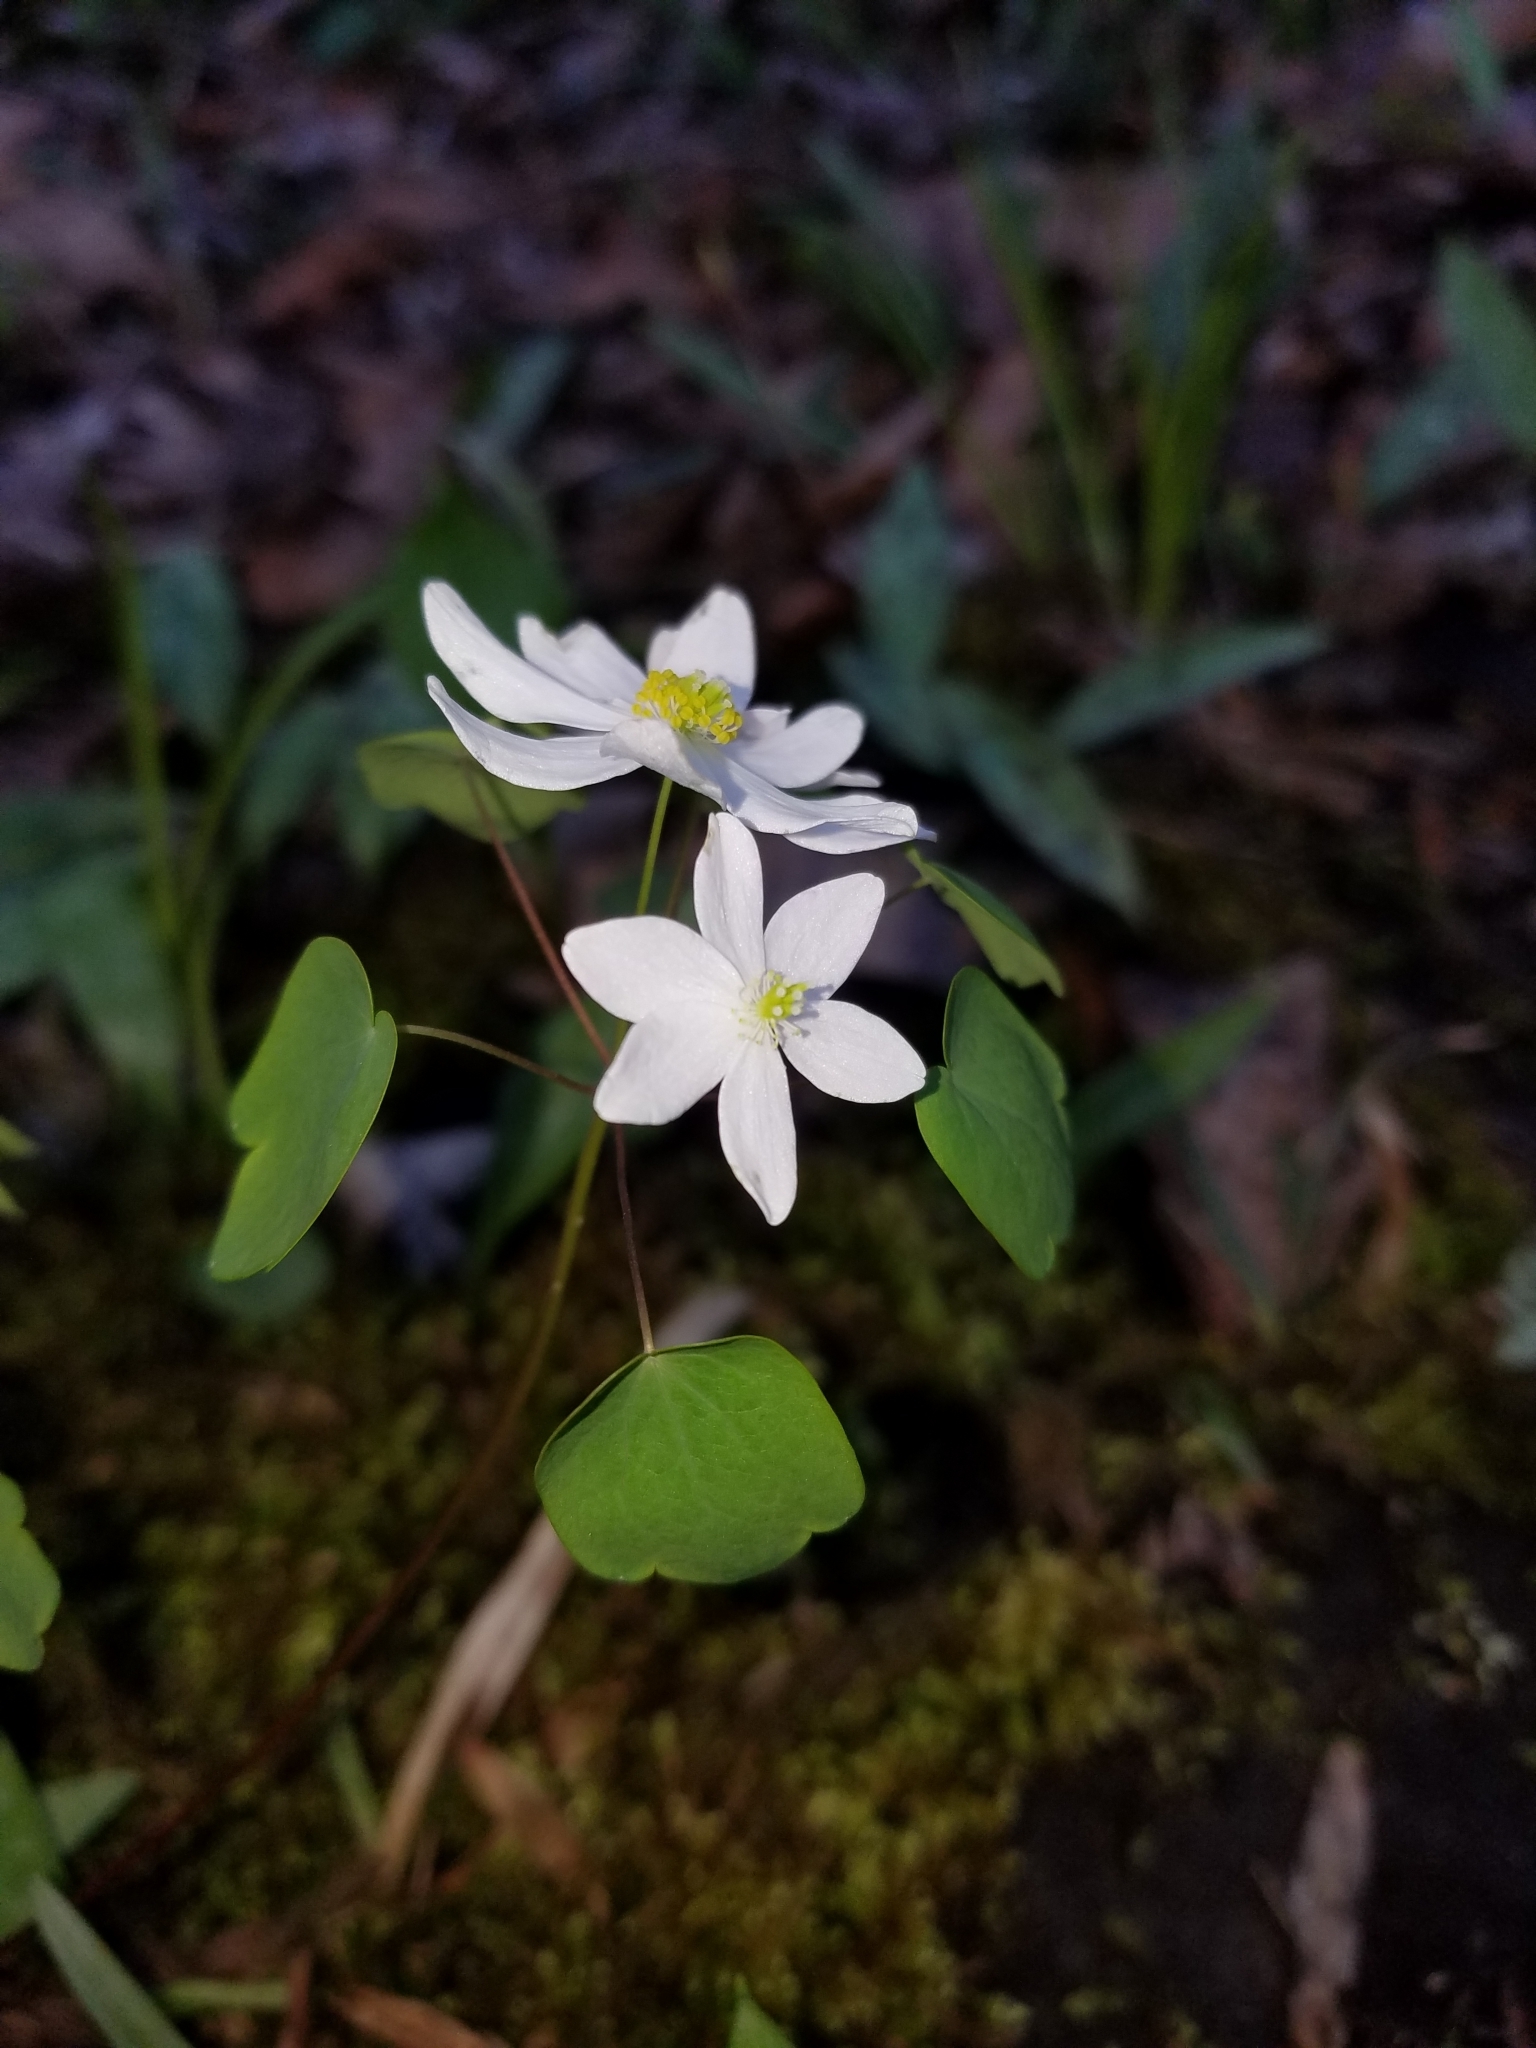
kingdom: Plantae
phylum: Tracheophyta
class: Magnoliopsida
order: Ranunculales
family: Ranunculaceae
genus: Thalictrum
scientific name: Thalictrum thalictroides
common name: Rue-anemone
